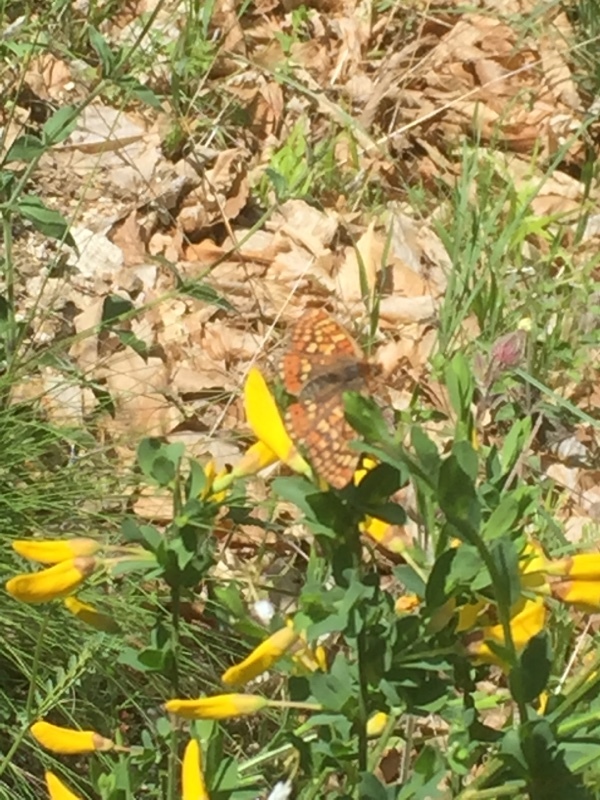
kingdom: Animalia
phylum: Arthropoda
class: Insecta
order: Lepidoptera
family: Nymphalidae
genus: Euphydryas
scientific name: Euphydryas aurinia
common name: Marsh fritillary
